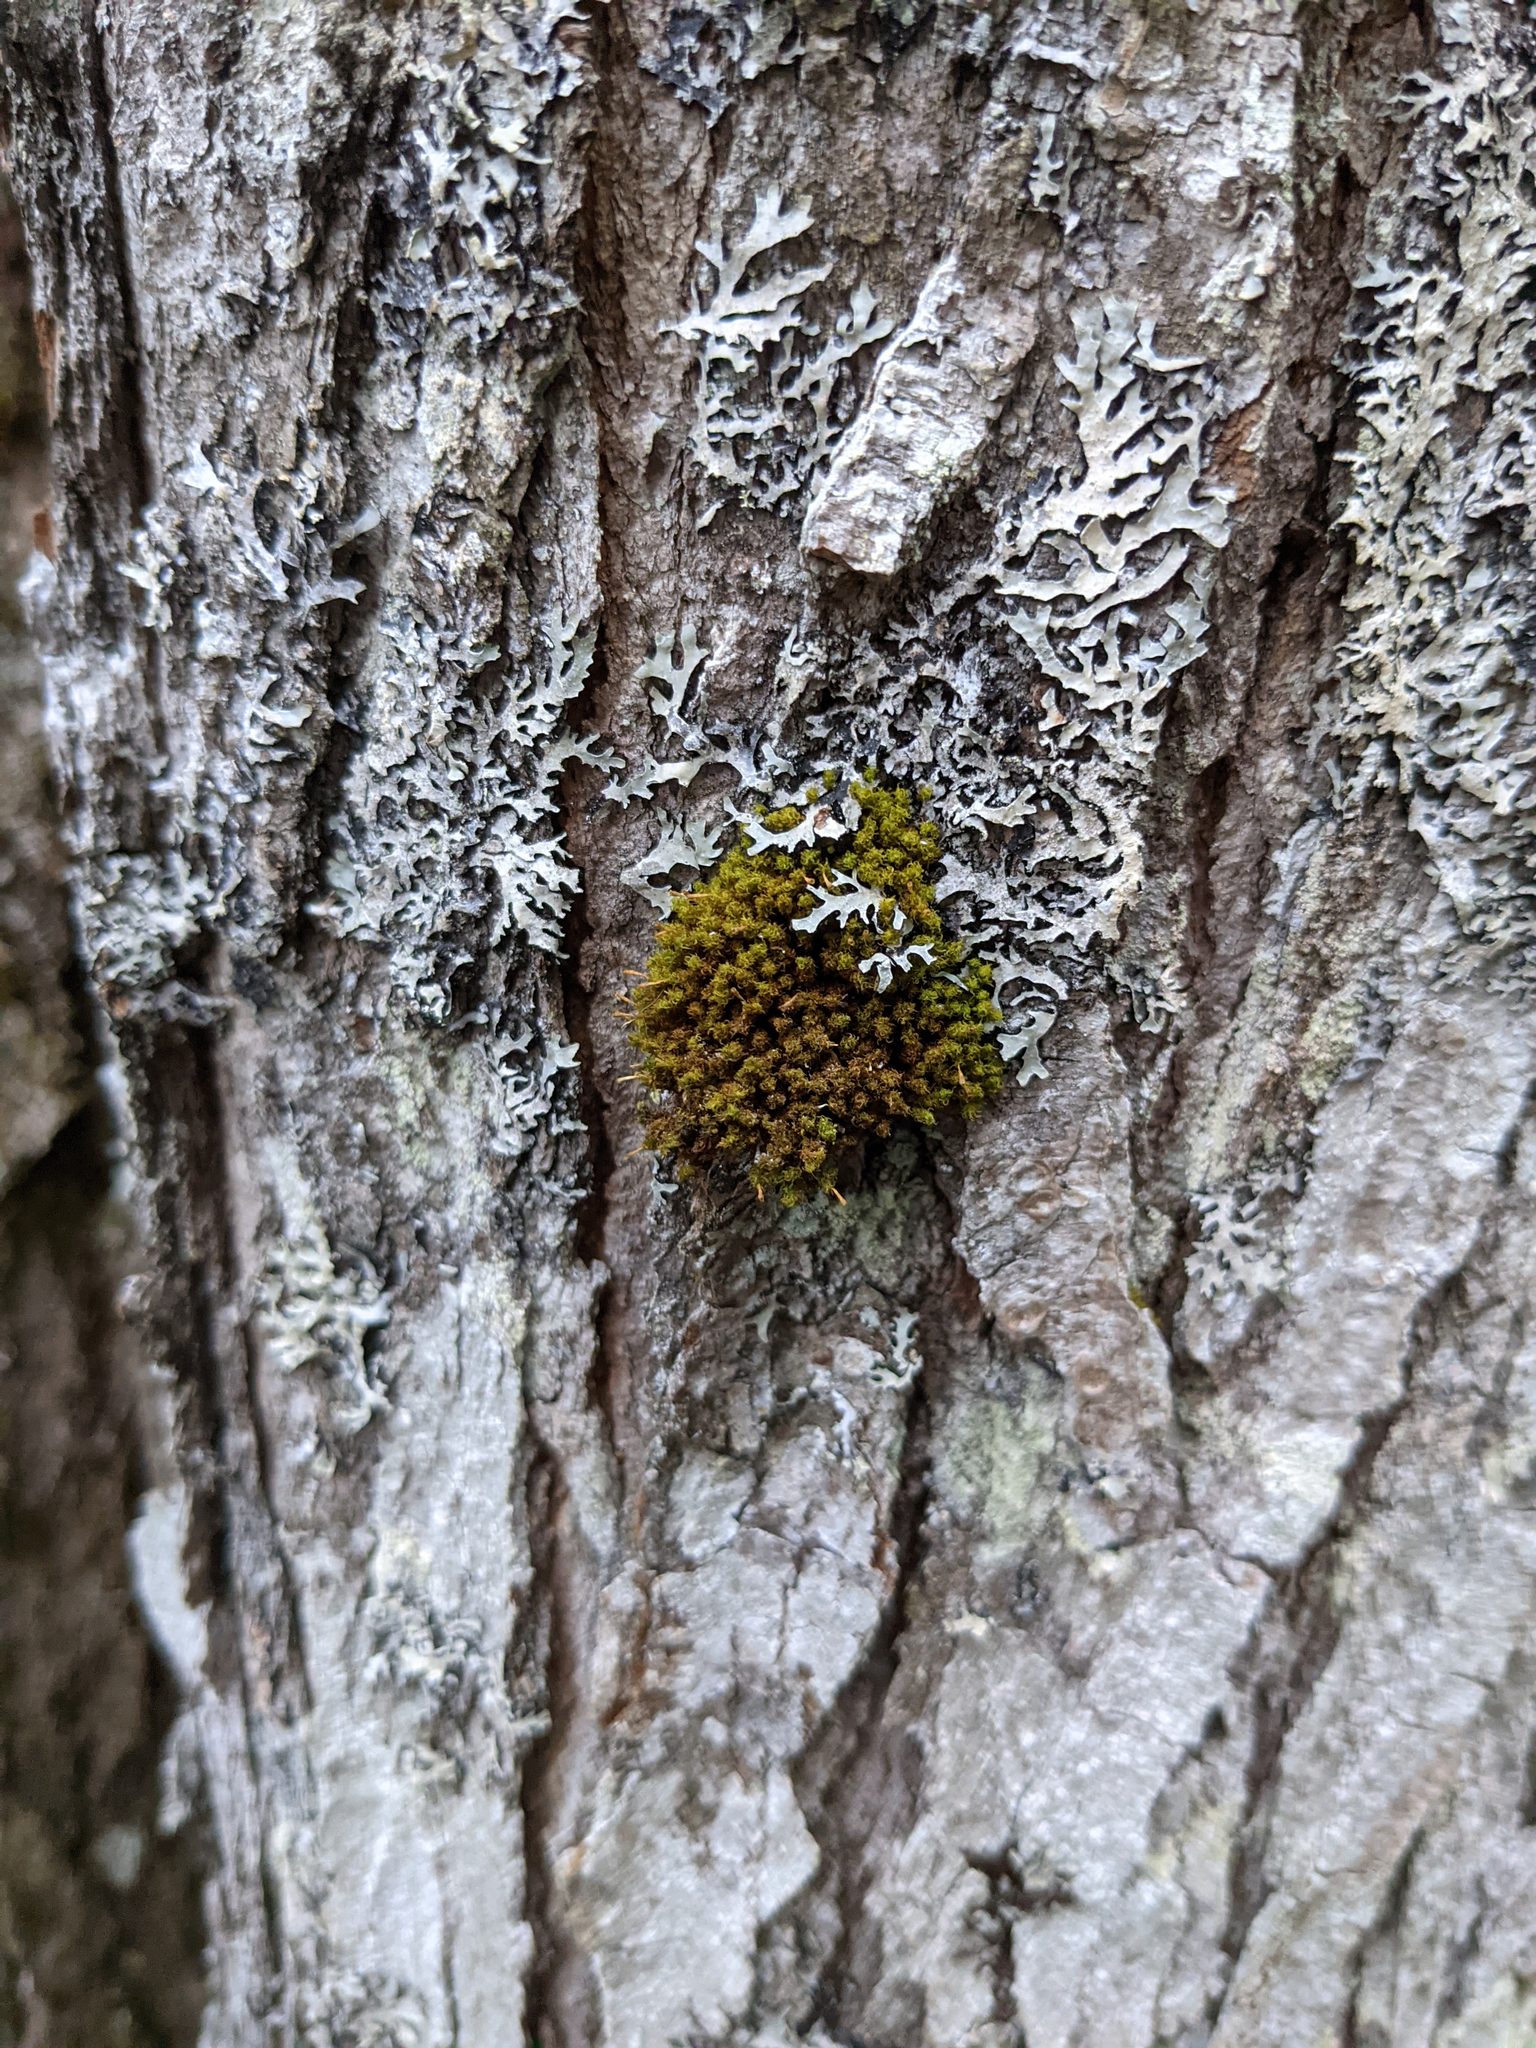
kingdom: Plantae
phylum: Bryophyta
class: Bryopsida
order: Orthotrichales
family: Orthotrichaceae
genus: Ulota
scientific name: Ulota crispa
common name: Crisped pincushion moss
